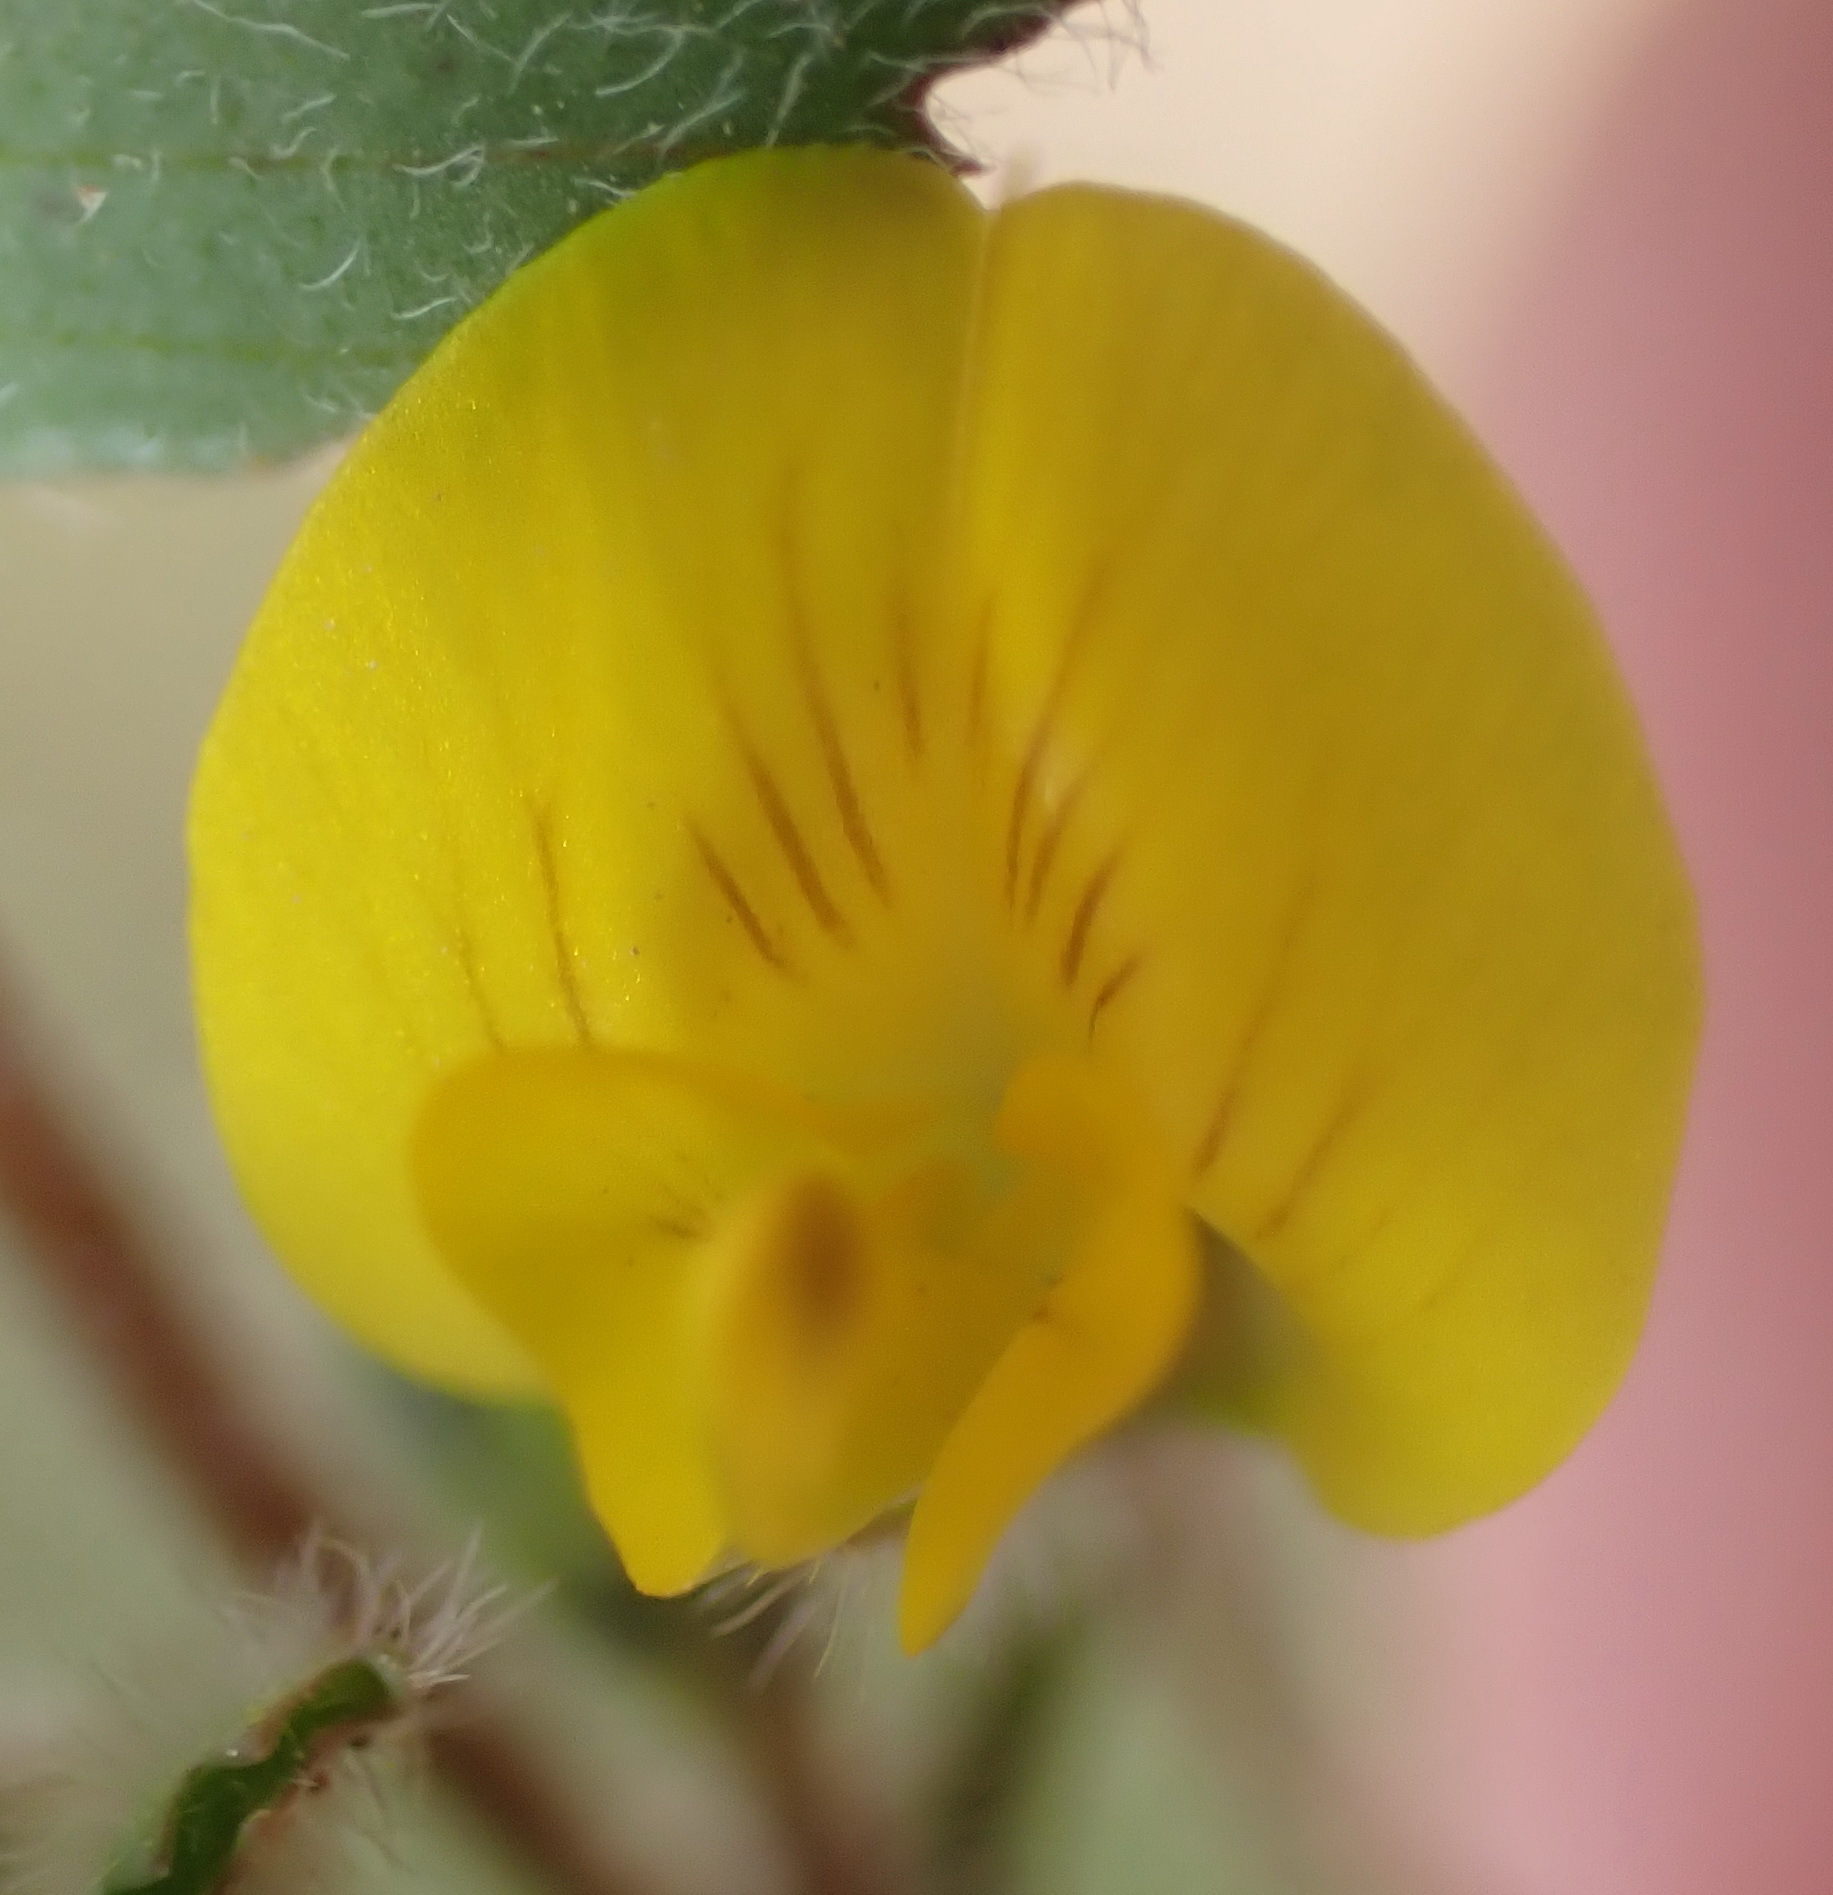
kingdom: Plantae
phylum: Tracheophyta
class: Magnoliopsida
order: Fabales
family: Fabaceae
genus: Medicago
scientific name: Medicago truncatula
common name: Strong-spined medick
